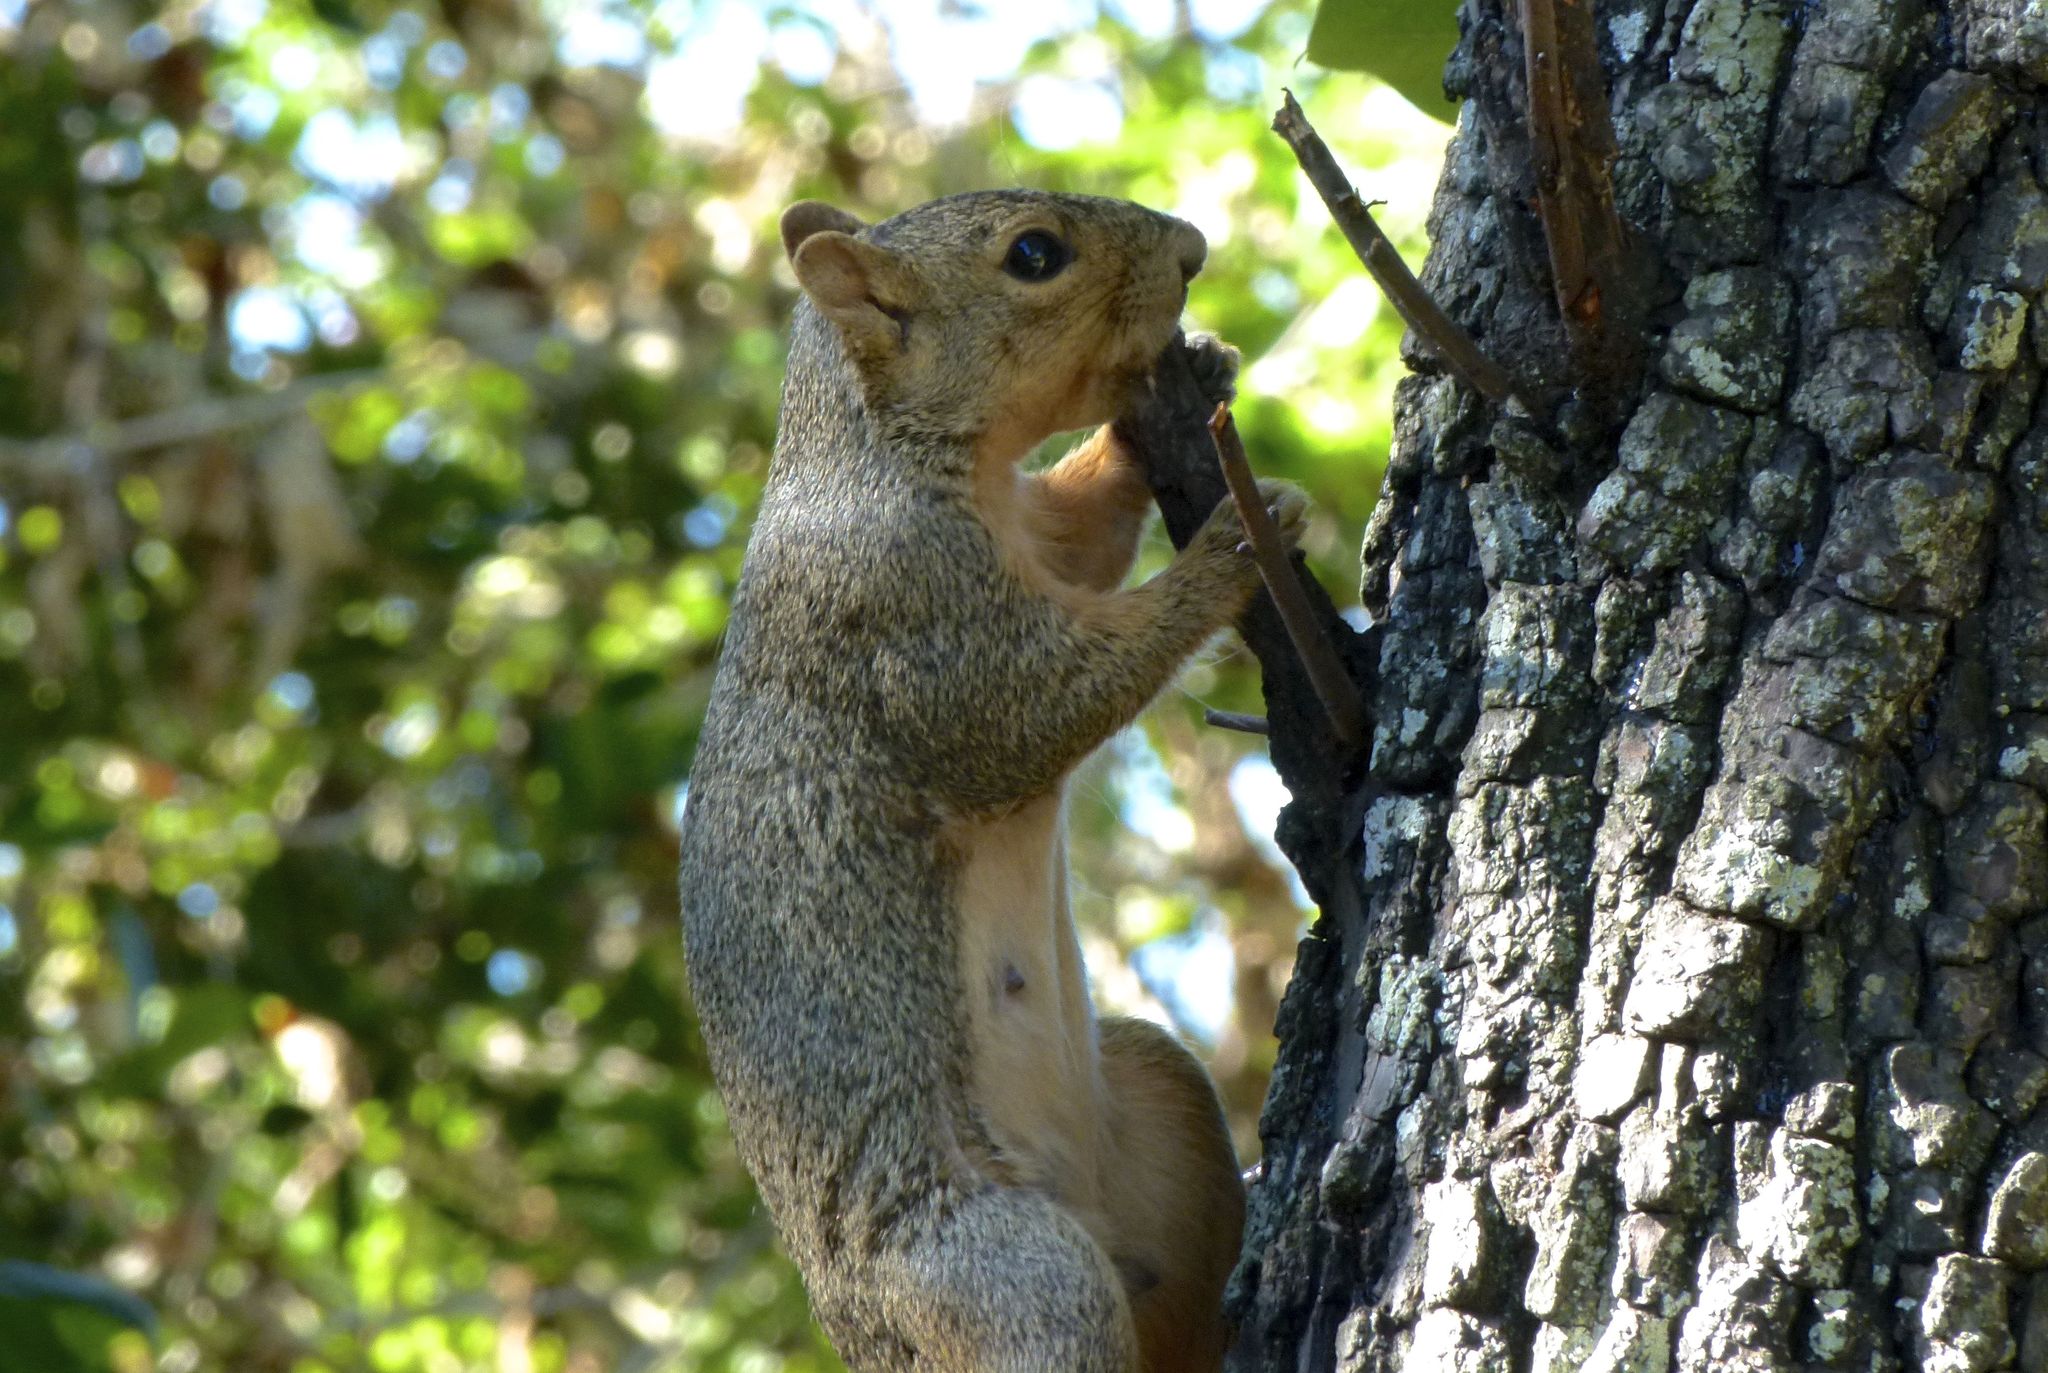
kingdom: Animalia
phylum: Chordata
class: Mammalia
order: Rodentia
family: Sciuridae
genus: Sciurus
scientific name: Sciurus niger
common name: Fox squirrel
